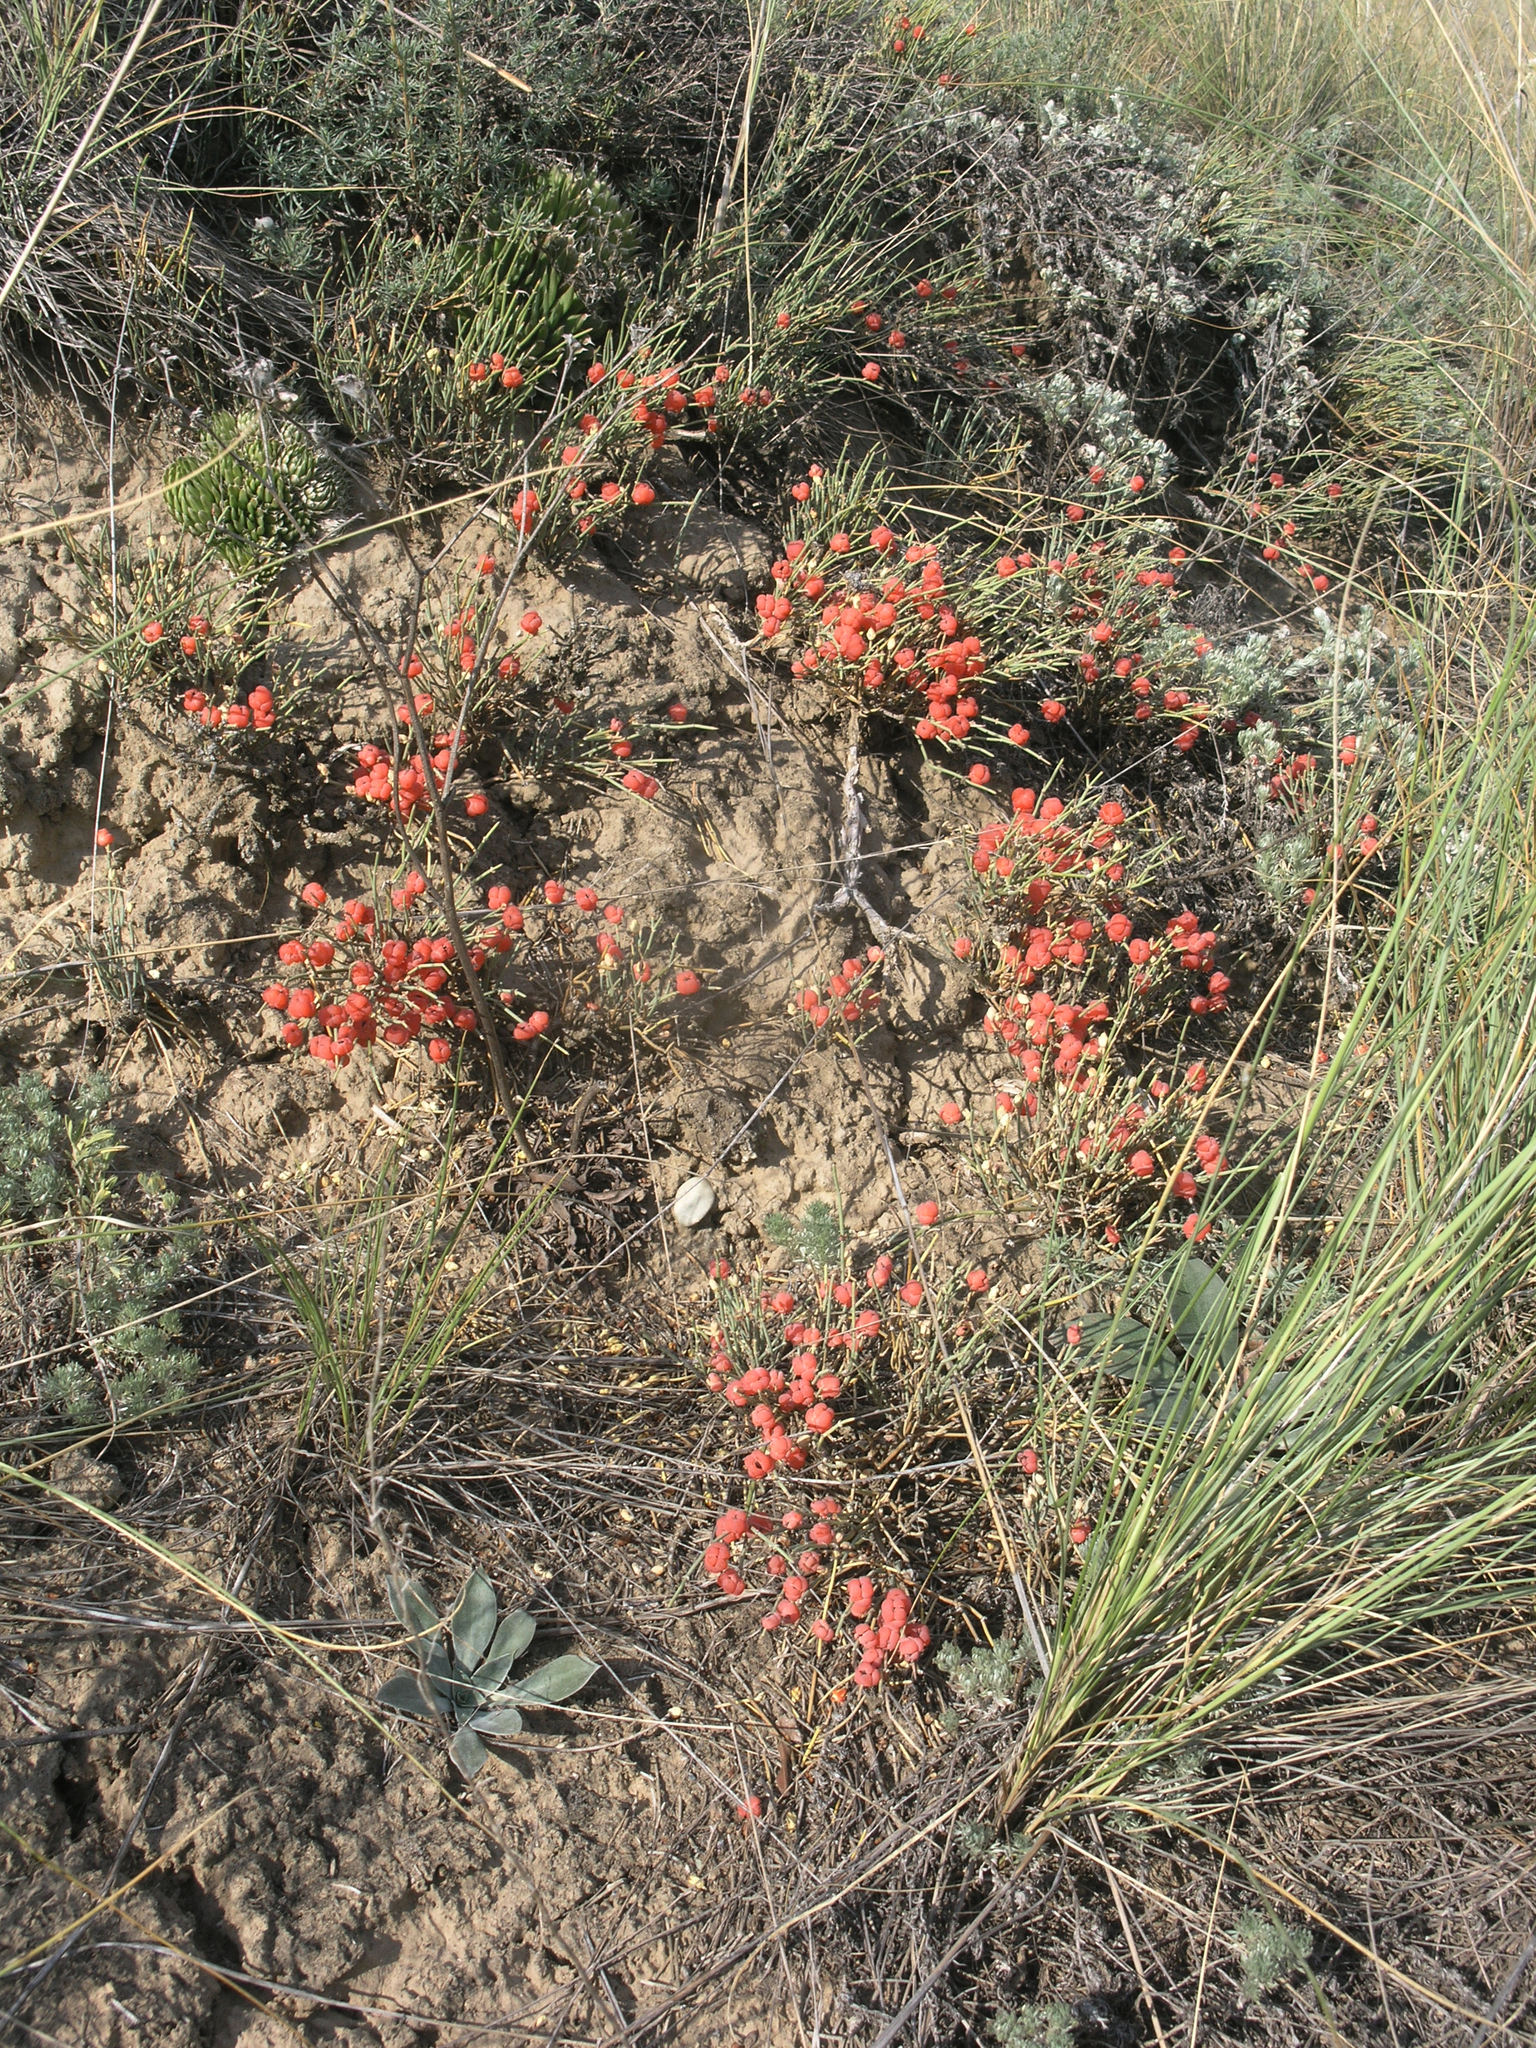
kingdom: Plantae
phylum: Tracheophyta
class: Gnetopsida
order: Ephedrales
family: Ephedraceae
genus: Ephedra
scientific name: Ephedra distachya
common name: Sea grape
